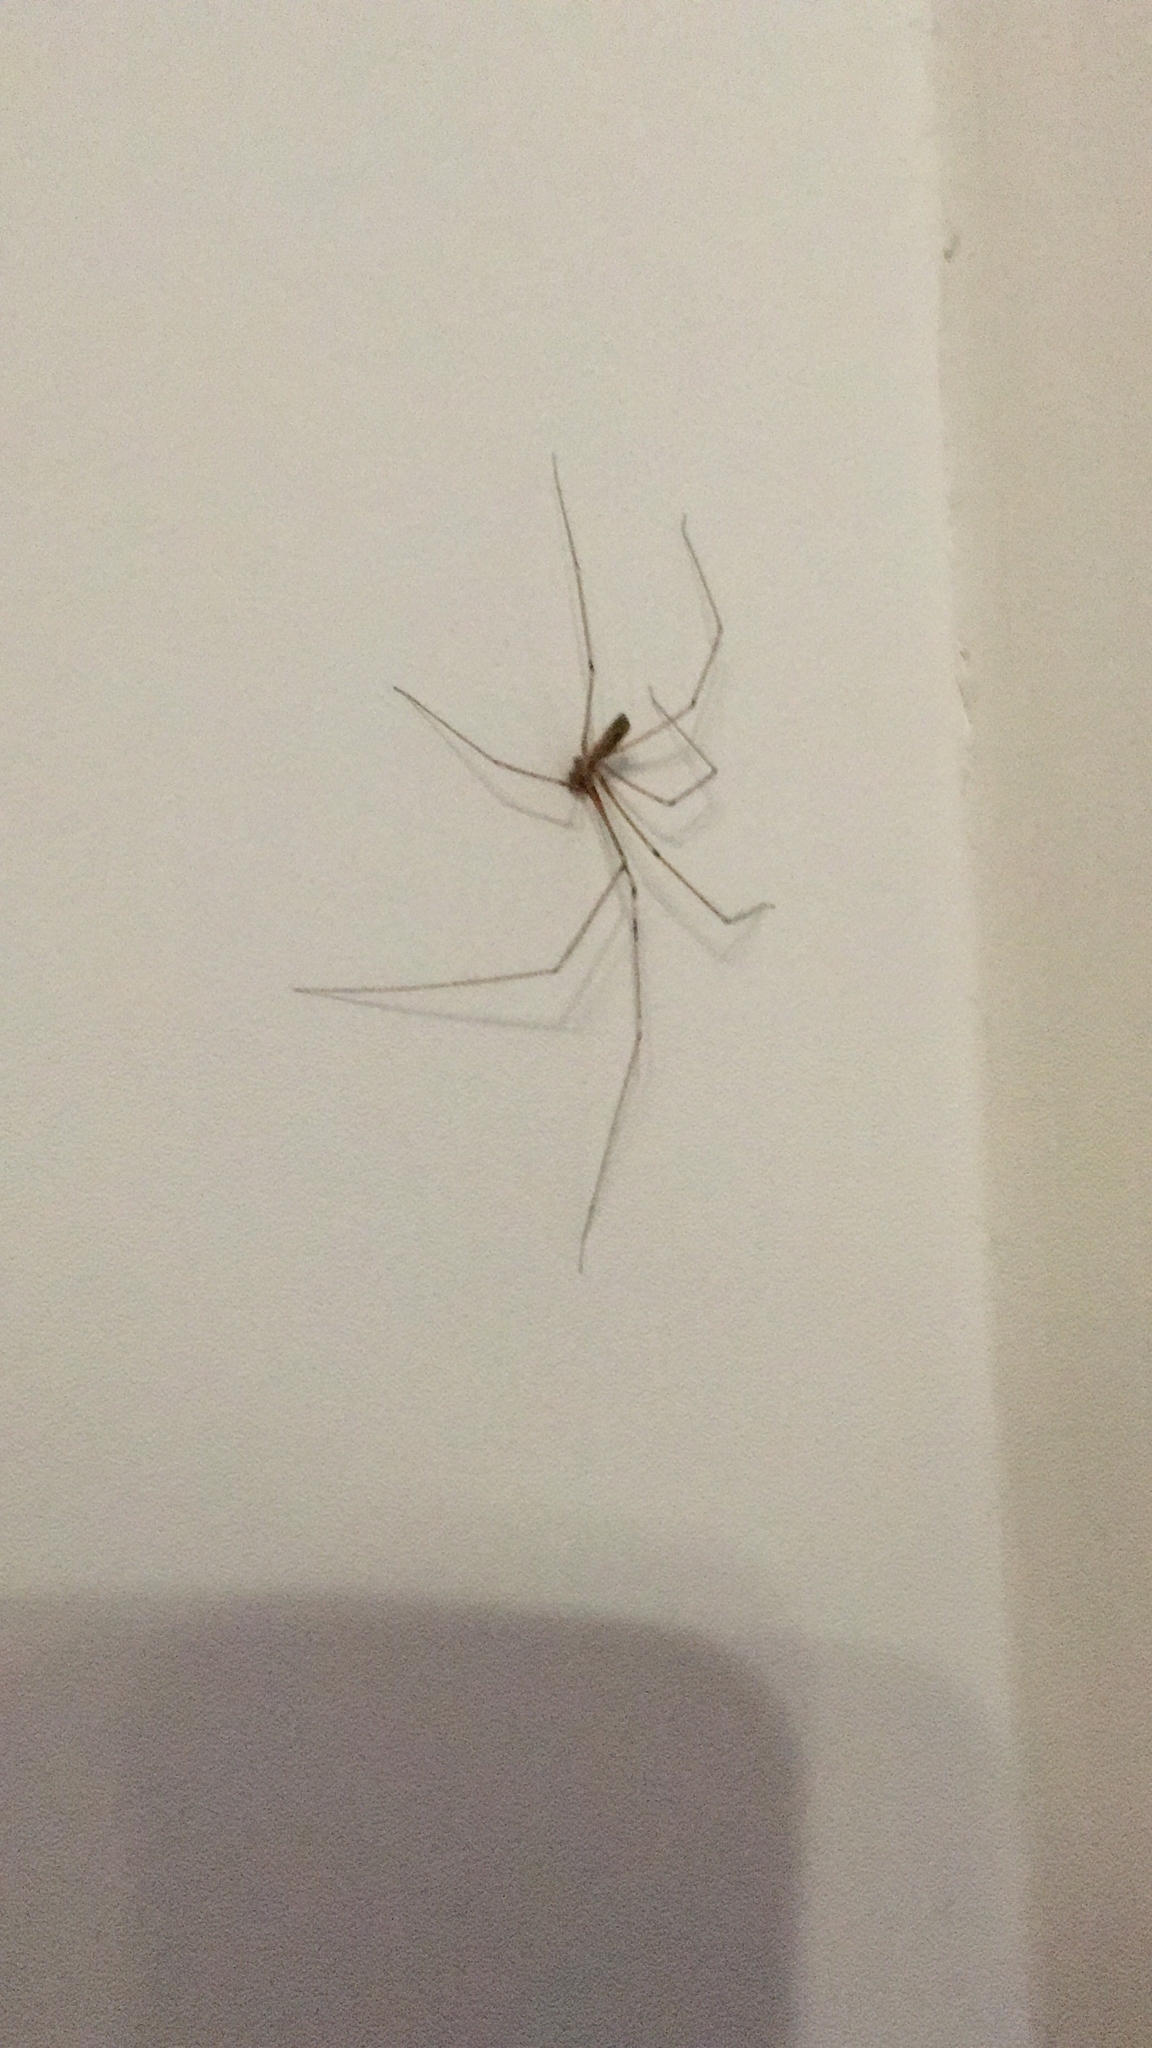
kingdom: Animalia
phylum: Arthropoda
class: Arachnida
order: Araneae
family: Pholcidae
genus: Pholcus
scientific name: Pholcus phalangioides
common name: Longbodied cellar spider
